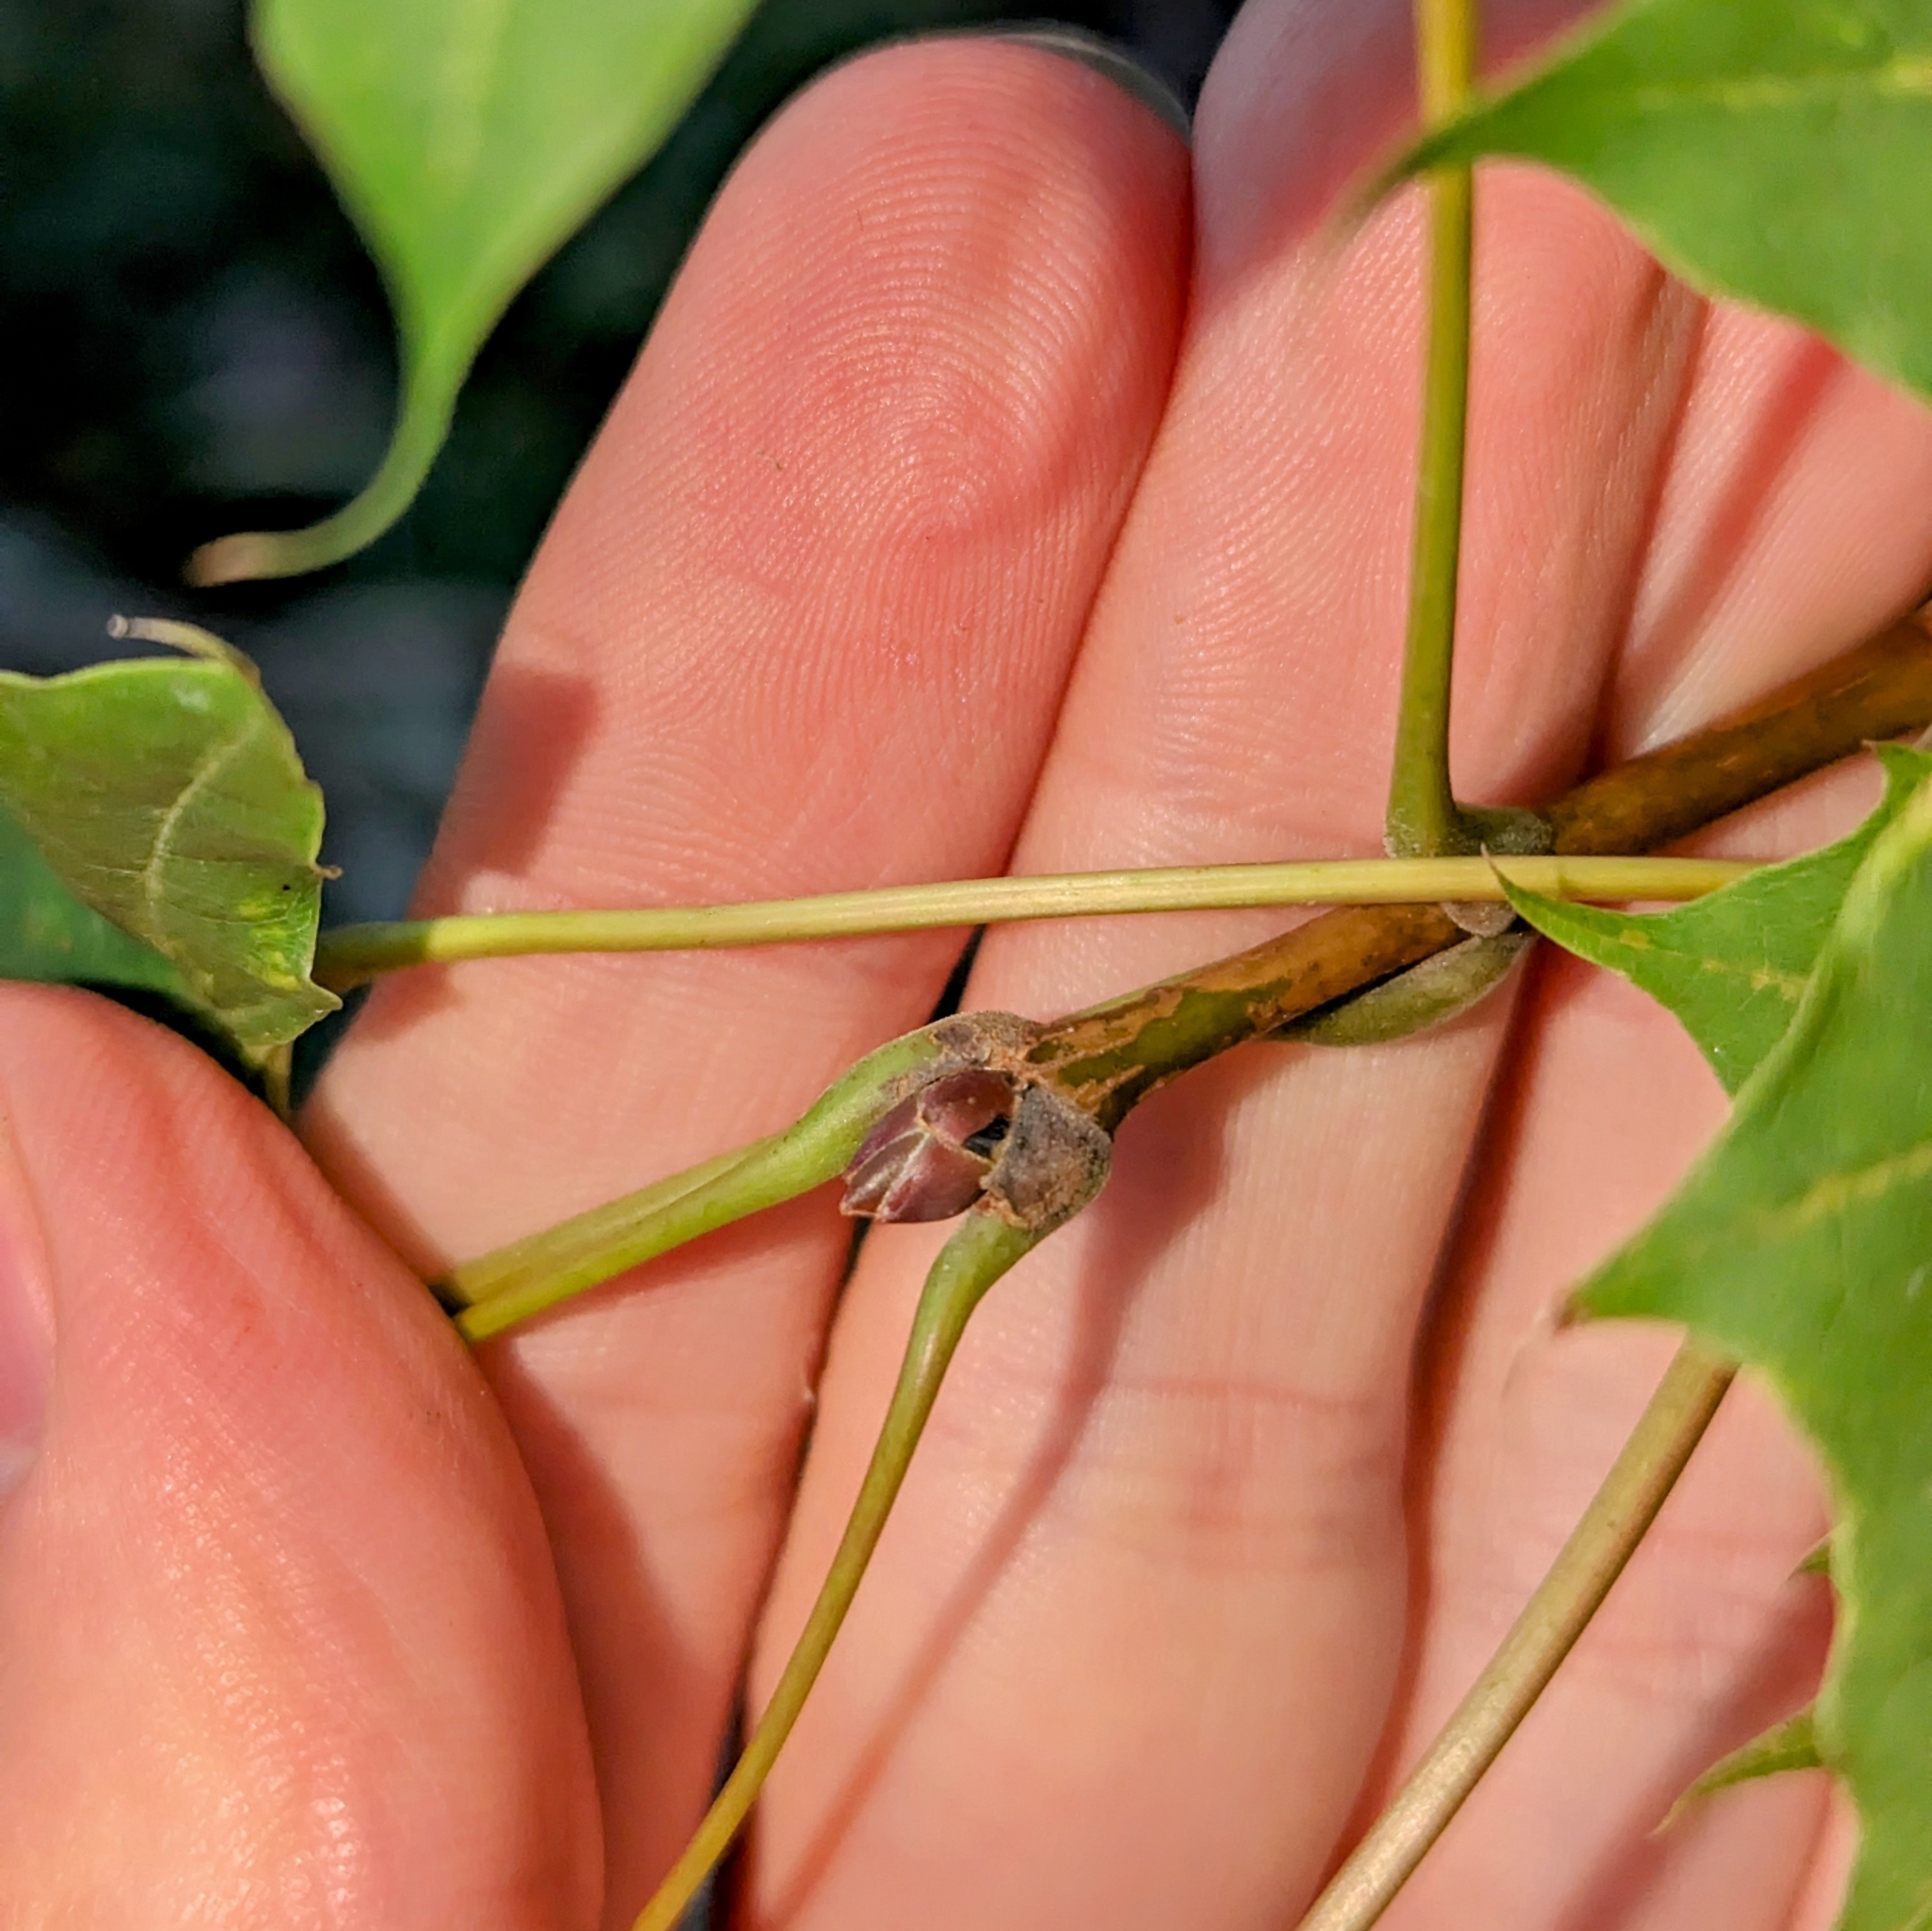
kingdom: Plantae
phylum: Tracheophyta
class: Magnoliopsida
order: Sapindales
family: Sapindaceae
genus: Acer
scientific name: Acer platanoides
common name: Norway maple
